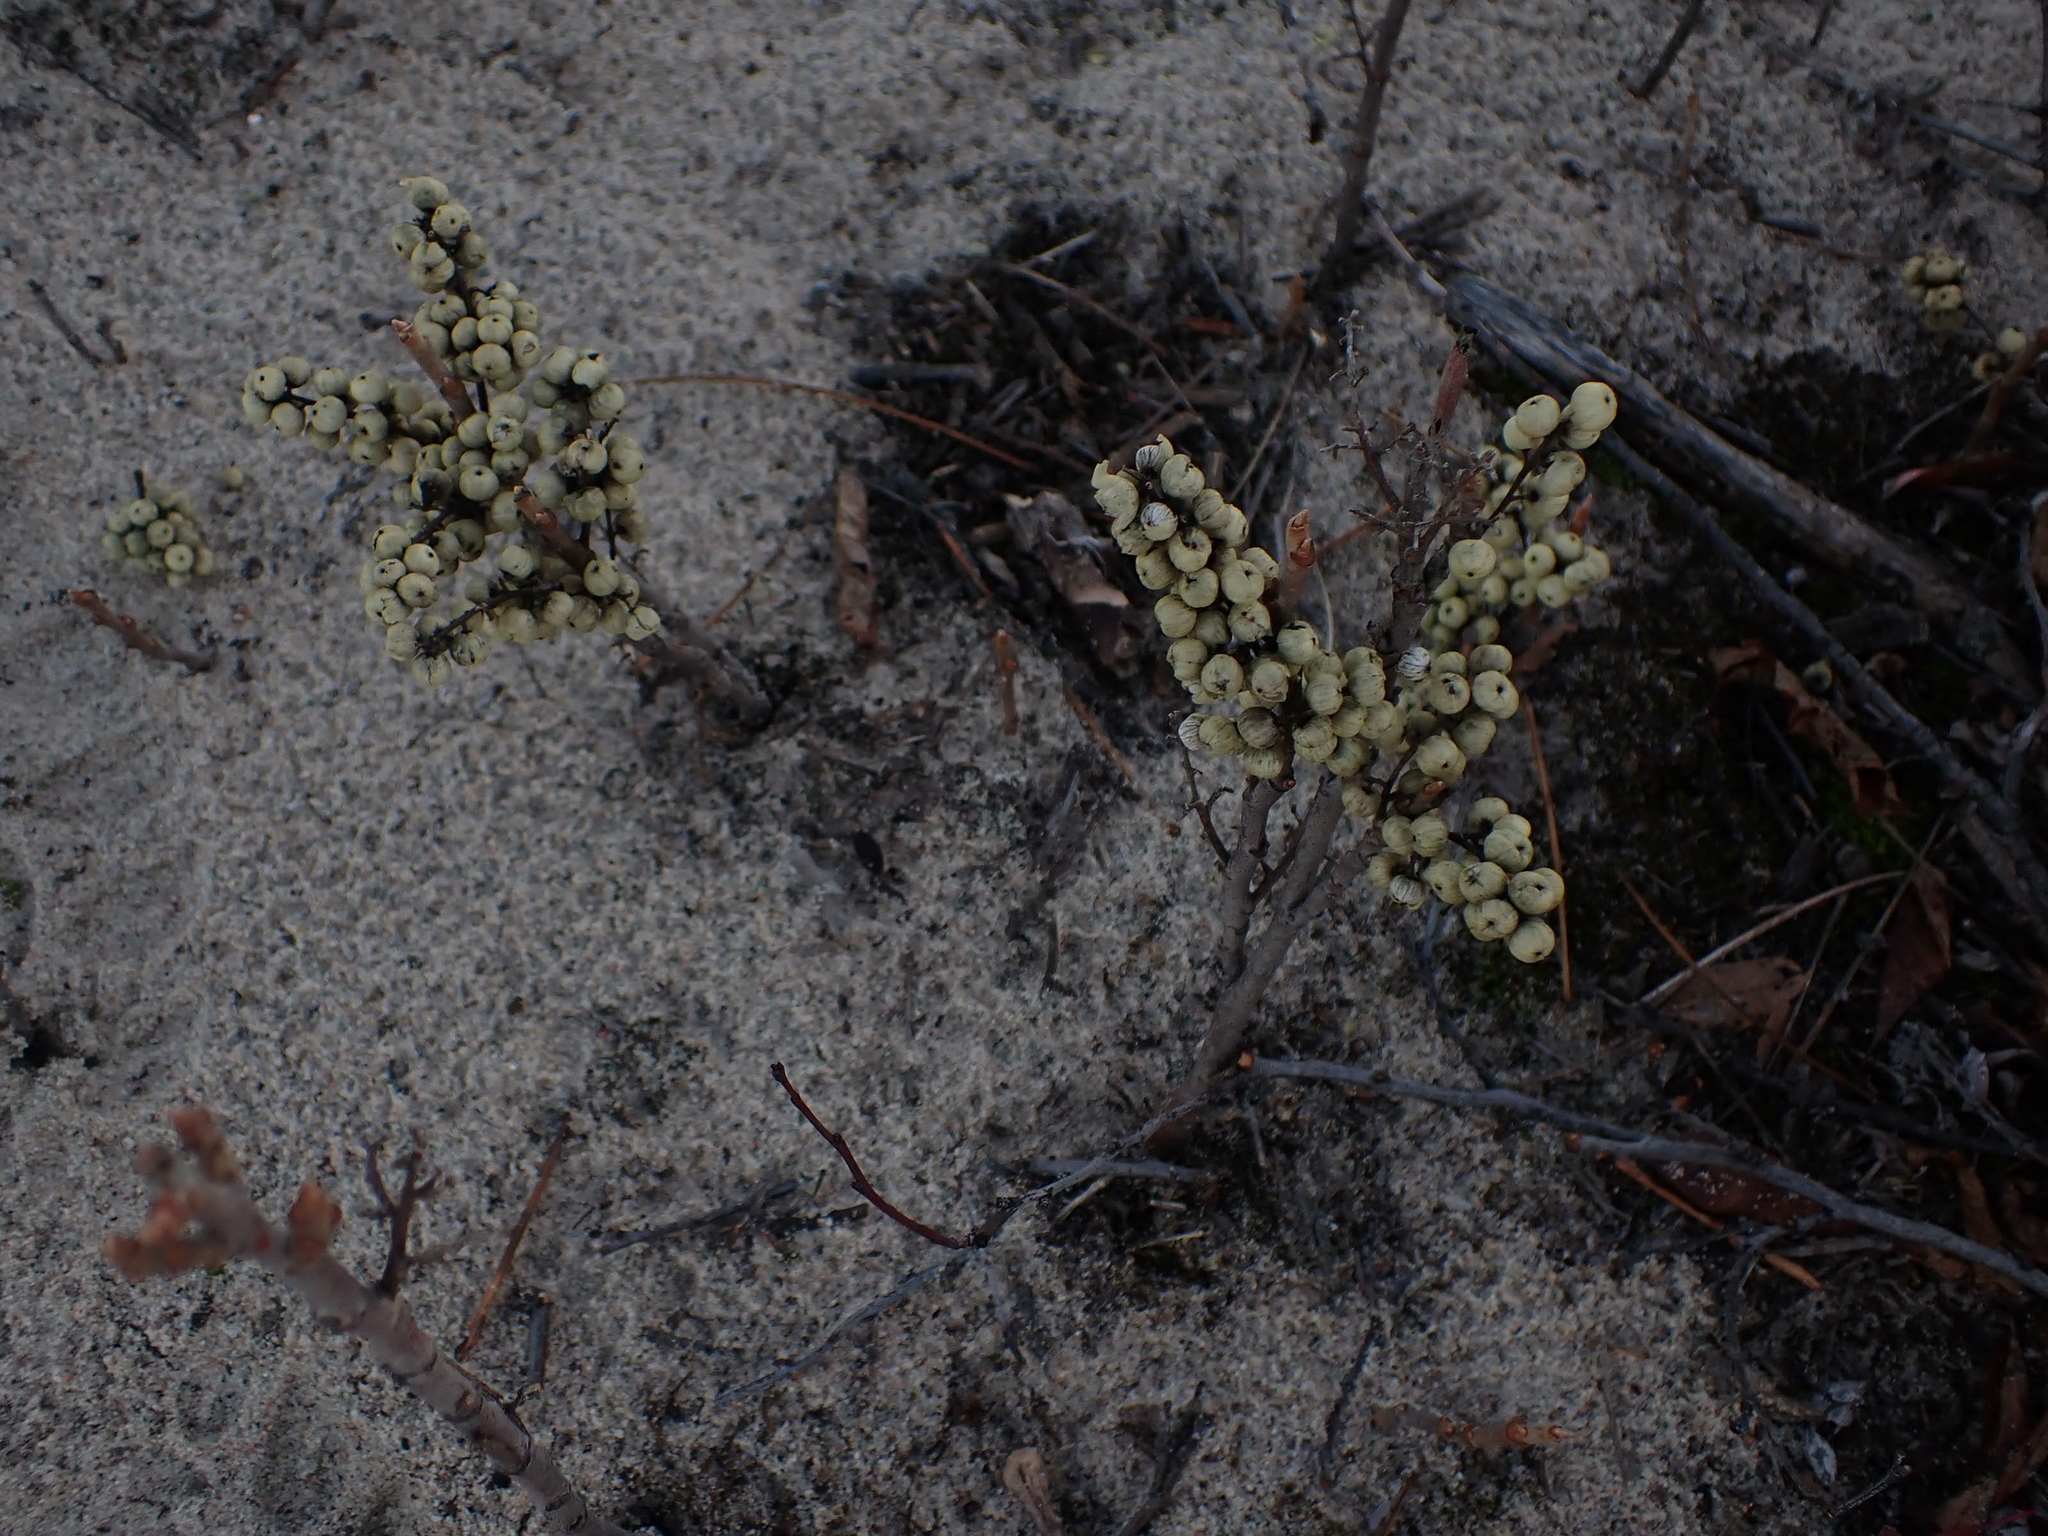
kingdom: Plantae
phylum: Tracheophyta
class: Magnoliopsida
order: Sapindales
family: Anacardiaceae
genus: Toxicodendron
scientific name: Toxicodendron rydbergii
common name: Rydberg's poison-ivy
